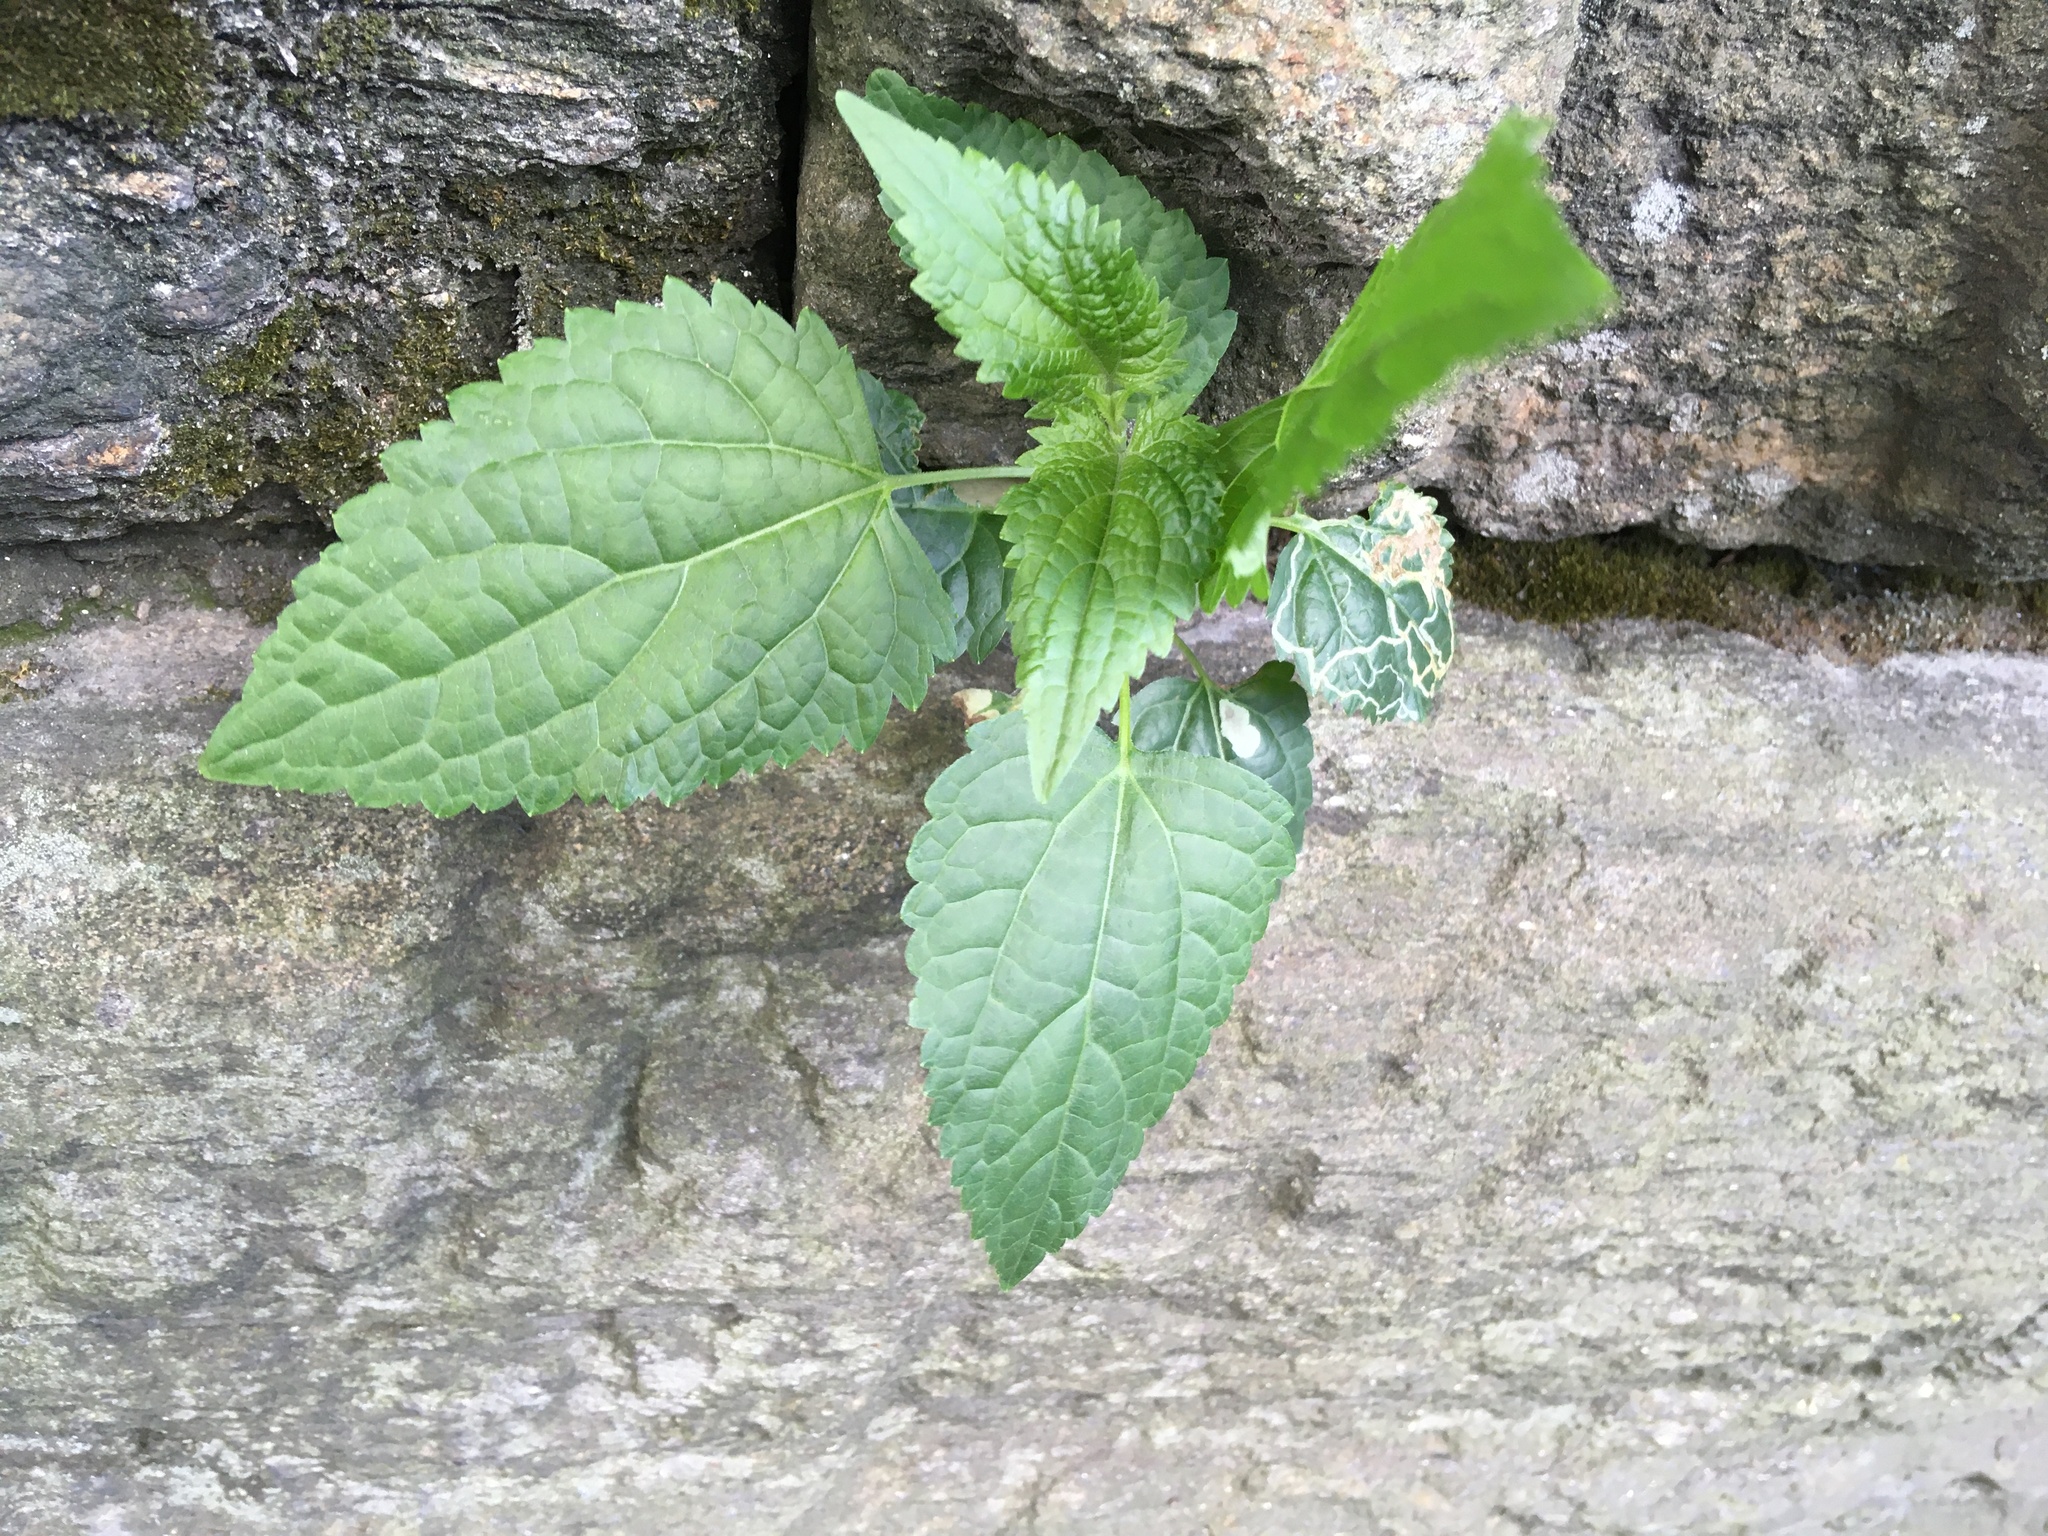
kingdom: Plantae
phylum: Tracheophyta
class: Magnoliopsida
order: Asterales
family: Asteraceae
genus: Ageratina
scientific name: Ageratina altissima
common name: White snakeroot
